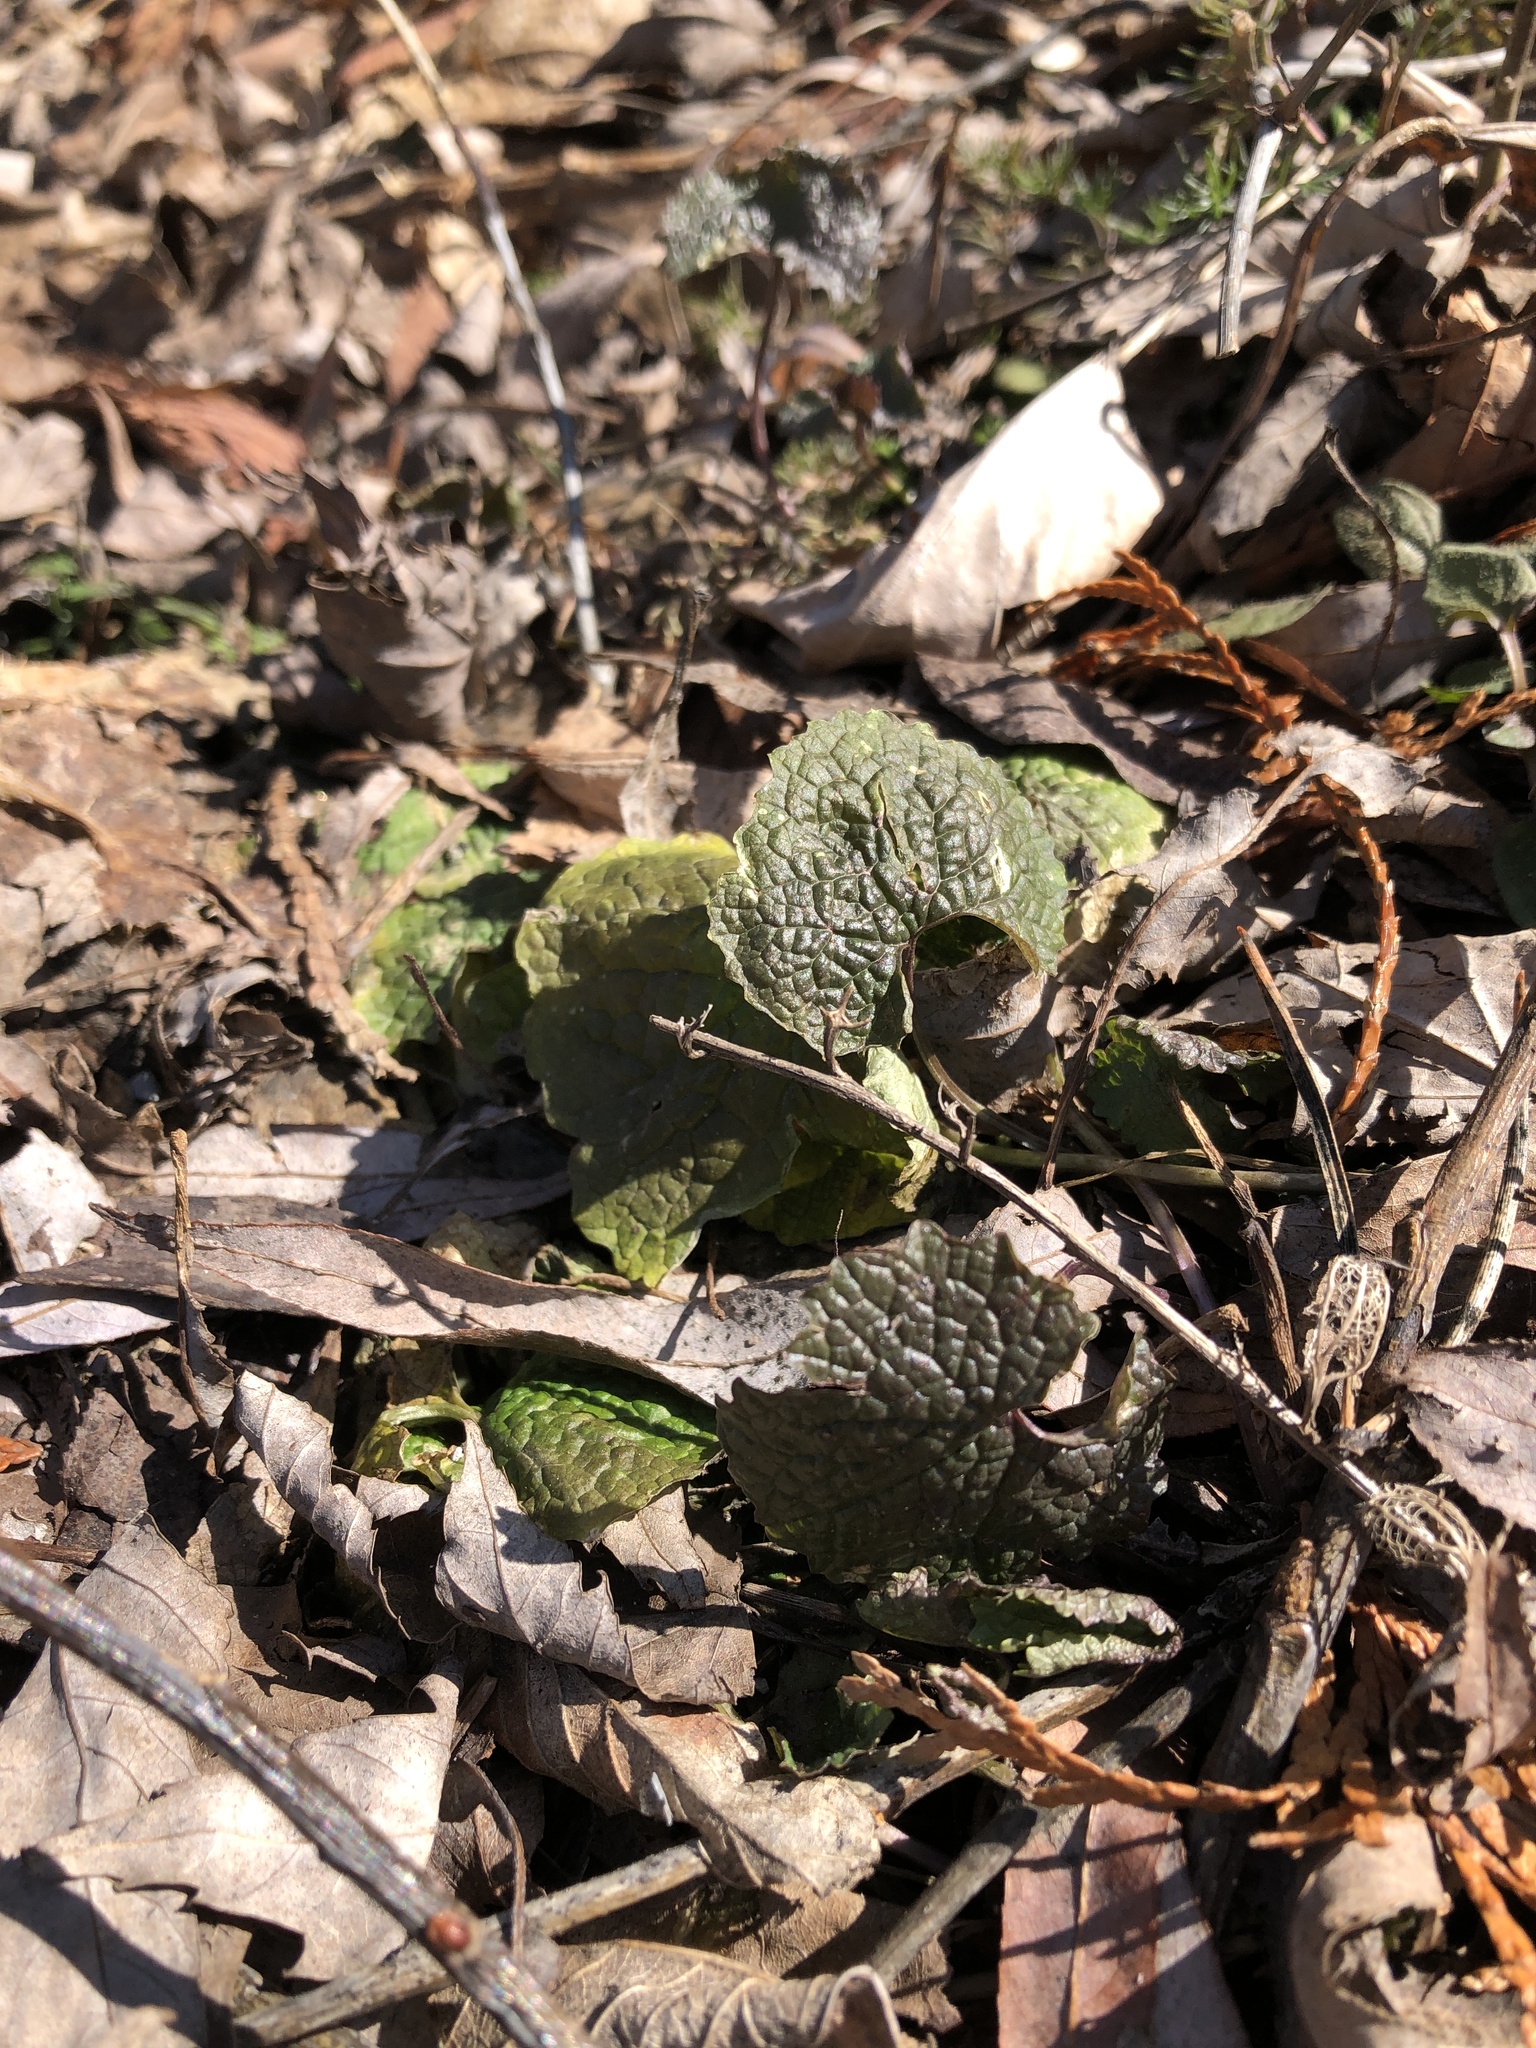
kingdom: Plantae
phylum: Tracheophyta
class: Magnoliopsida
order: Brassicales
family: Brassicaceae
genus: Alliaria
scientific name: Alliaria petiolata
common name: Garlic mustard
